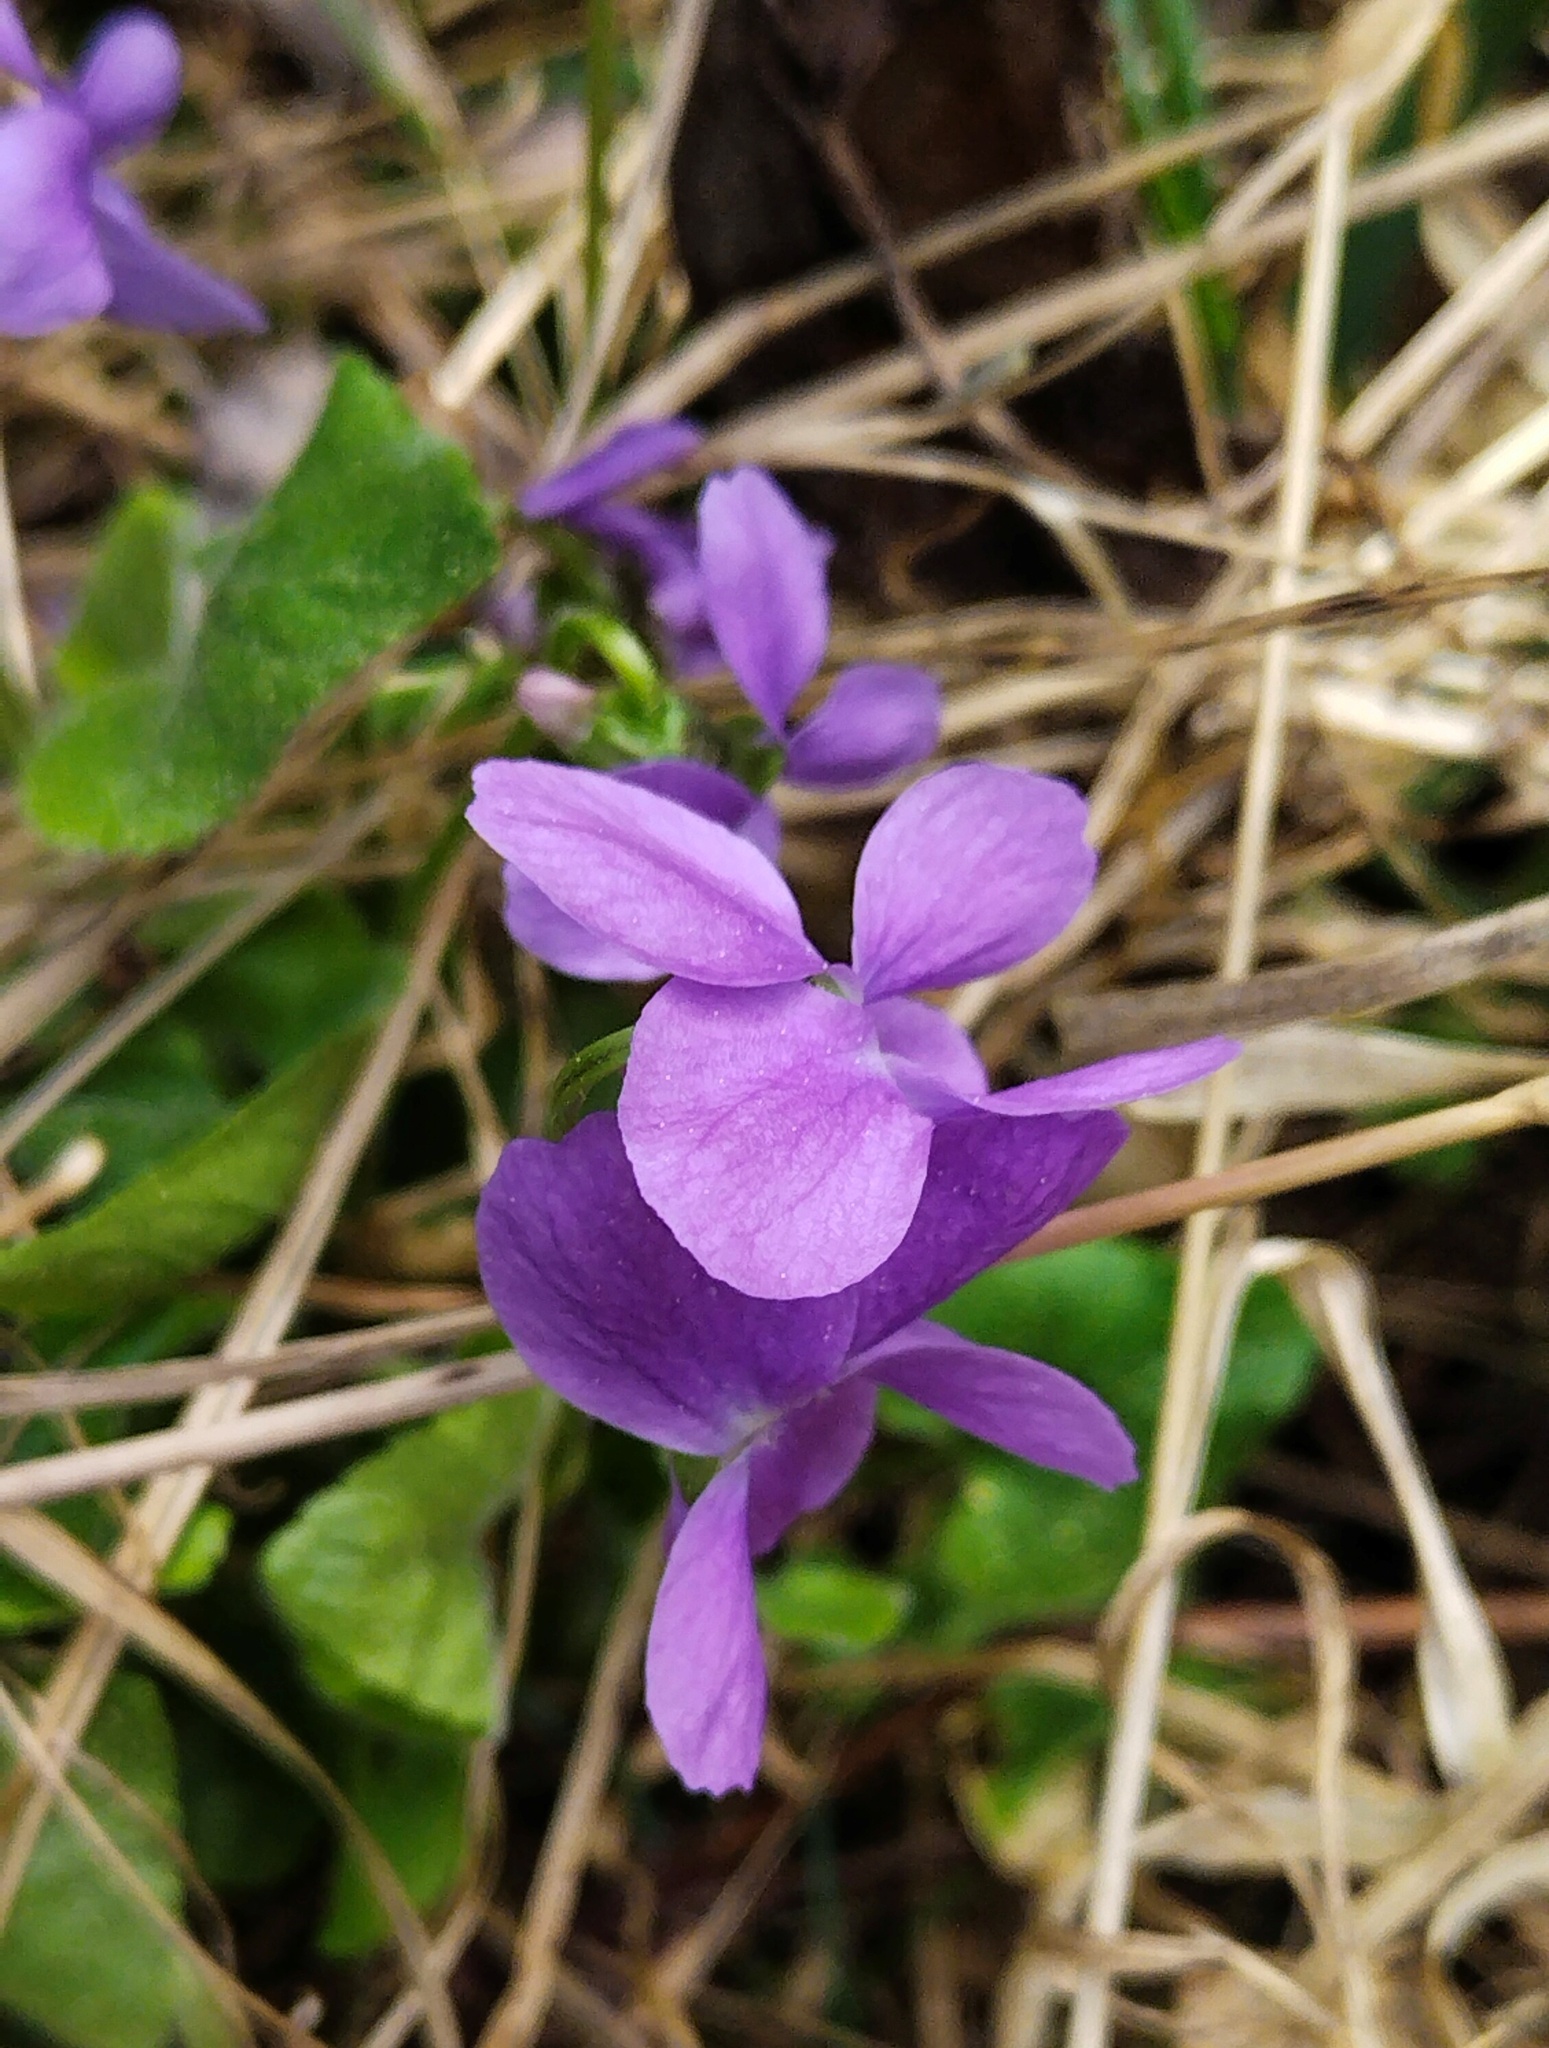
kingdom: Plantae
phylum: Tracheophyta
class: Magnoliopsida
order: Malpighiales
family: Violaceae
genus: Viola
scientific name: Viola hirta
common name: Hairy violet
